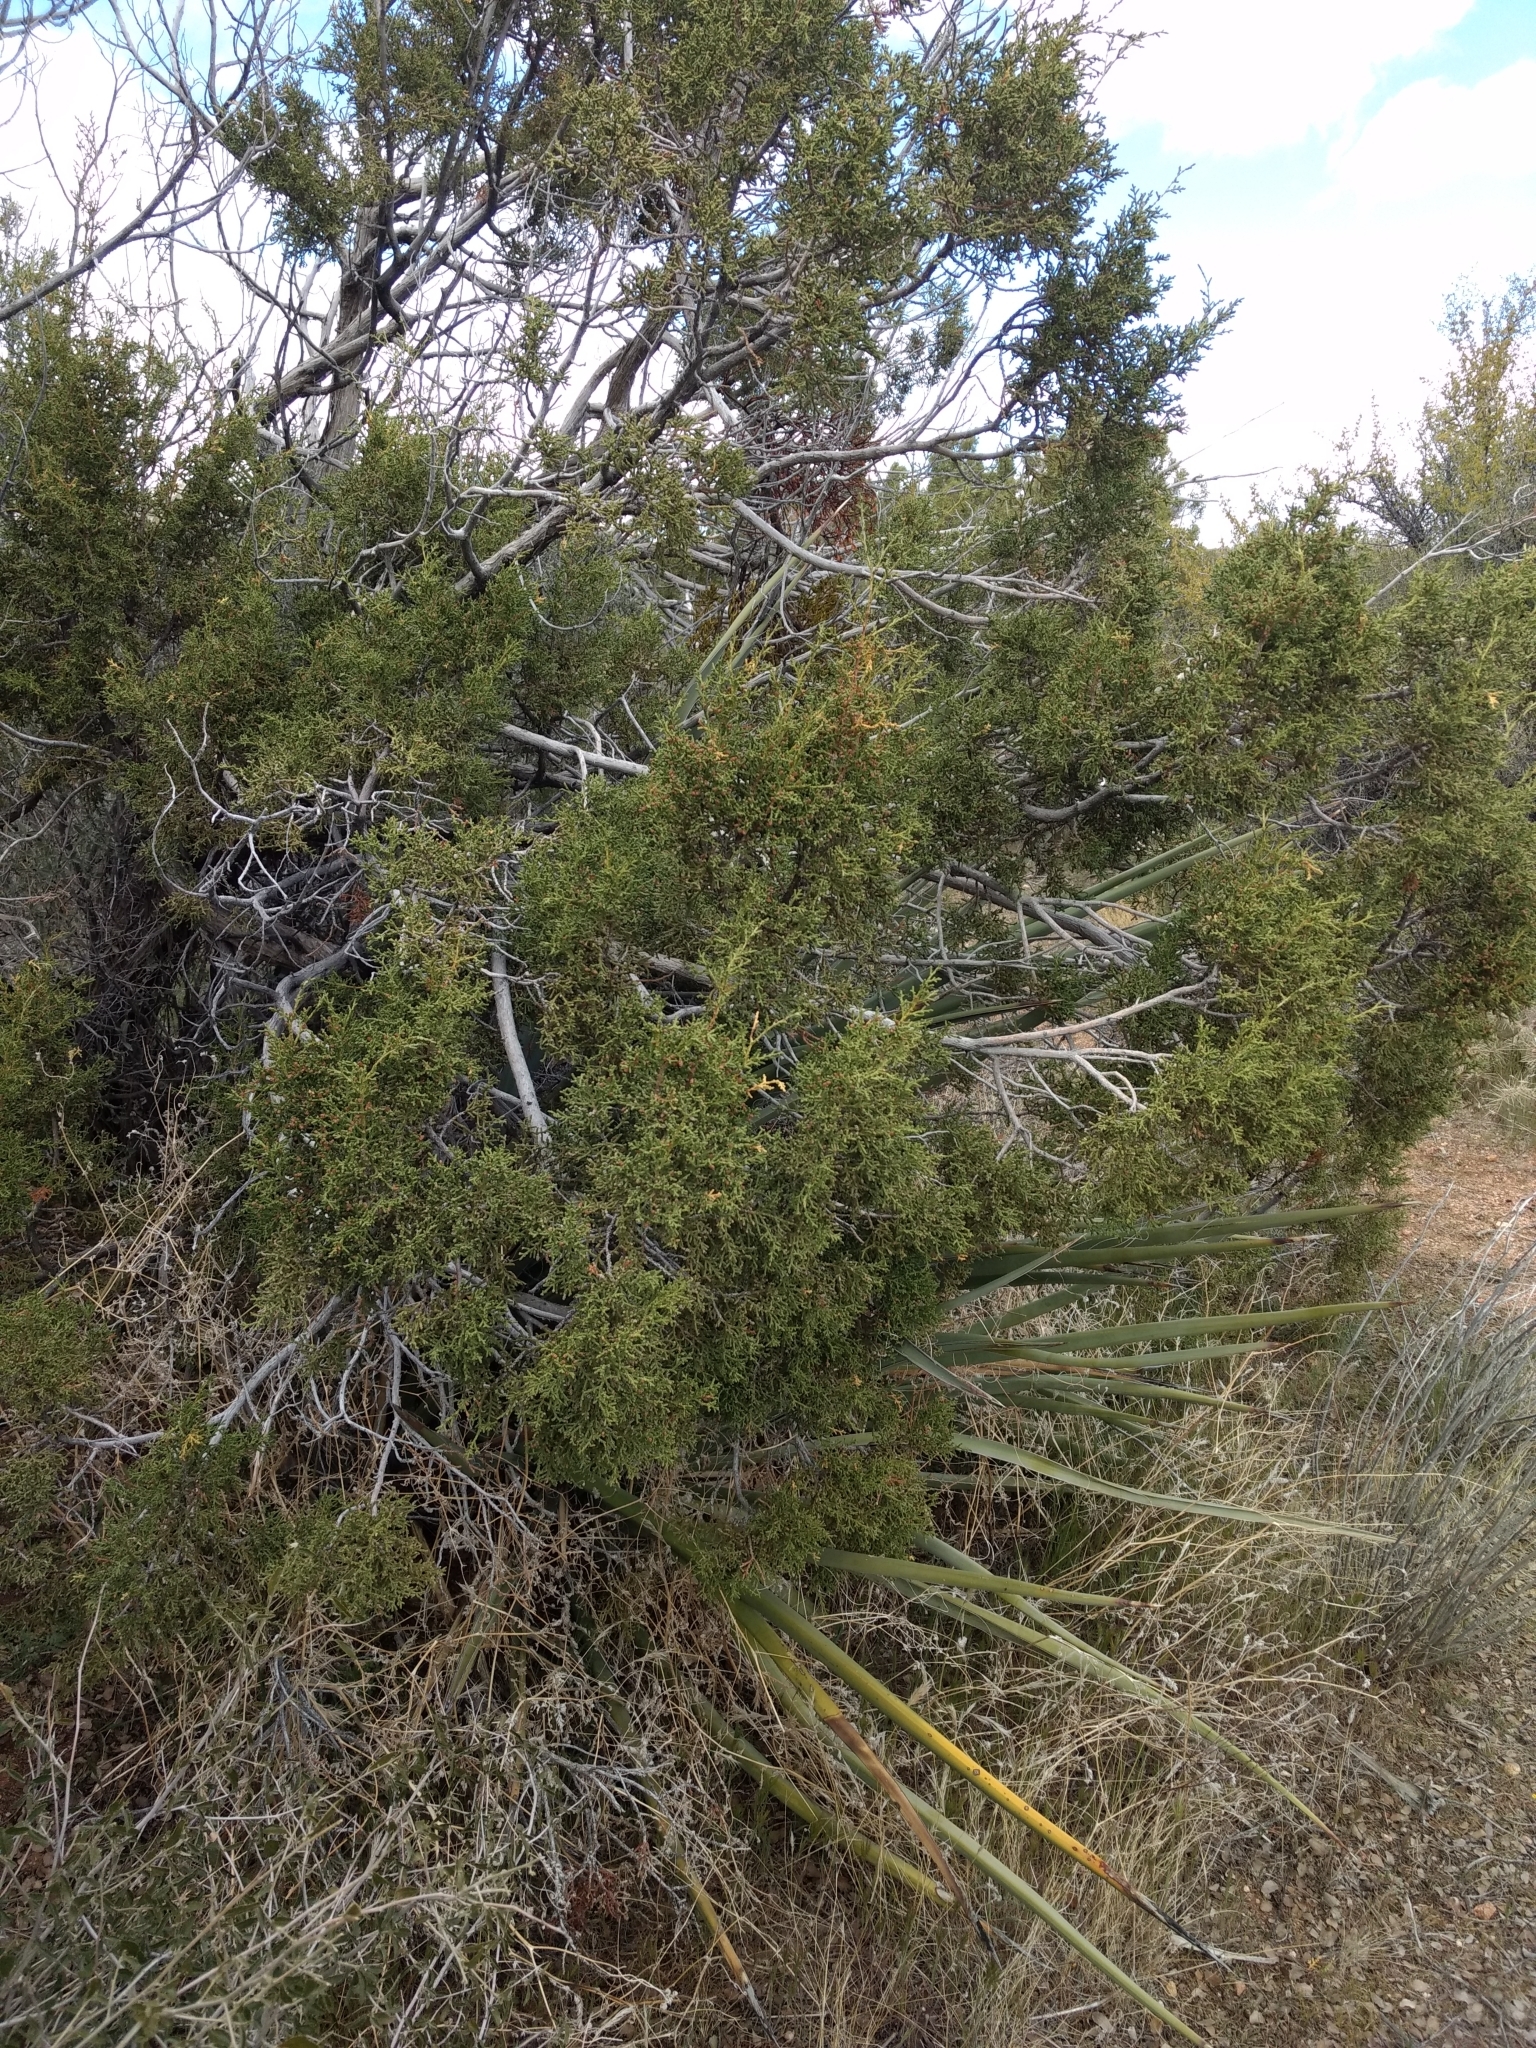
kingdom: Plantae
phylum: Tracheophyta
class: Pinopsida
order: Pinales
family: Cupressaceae
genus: Juniperus
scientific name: Juniperus californica
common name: California juniper
